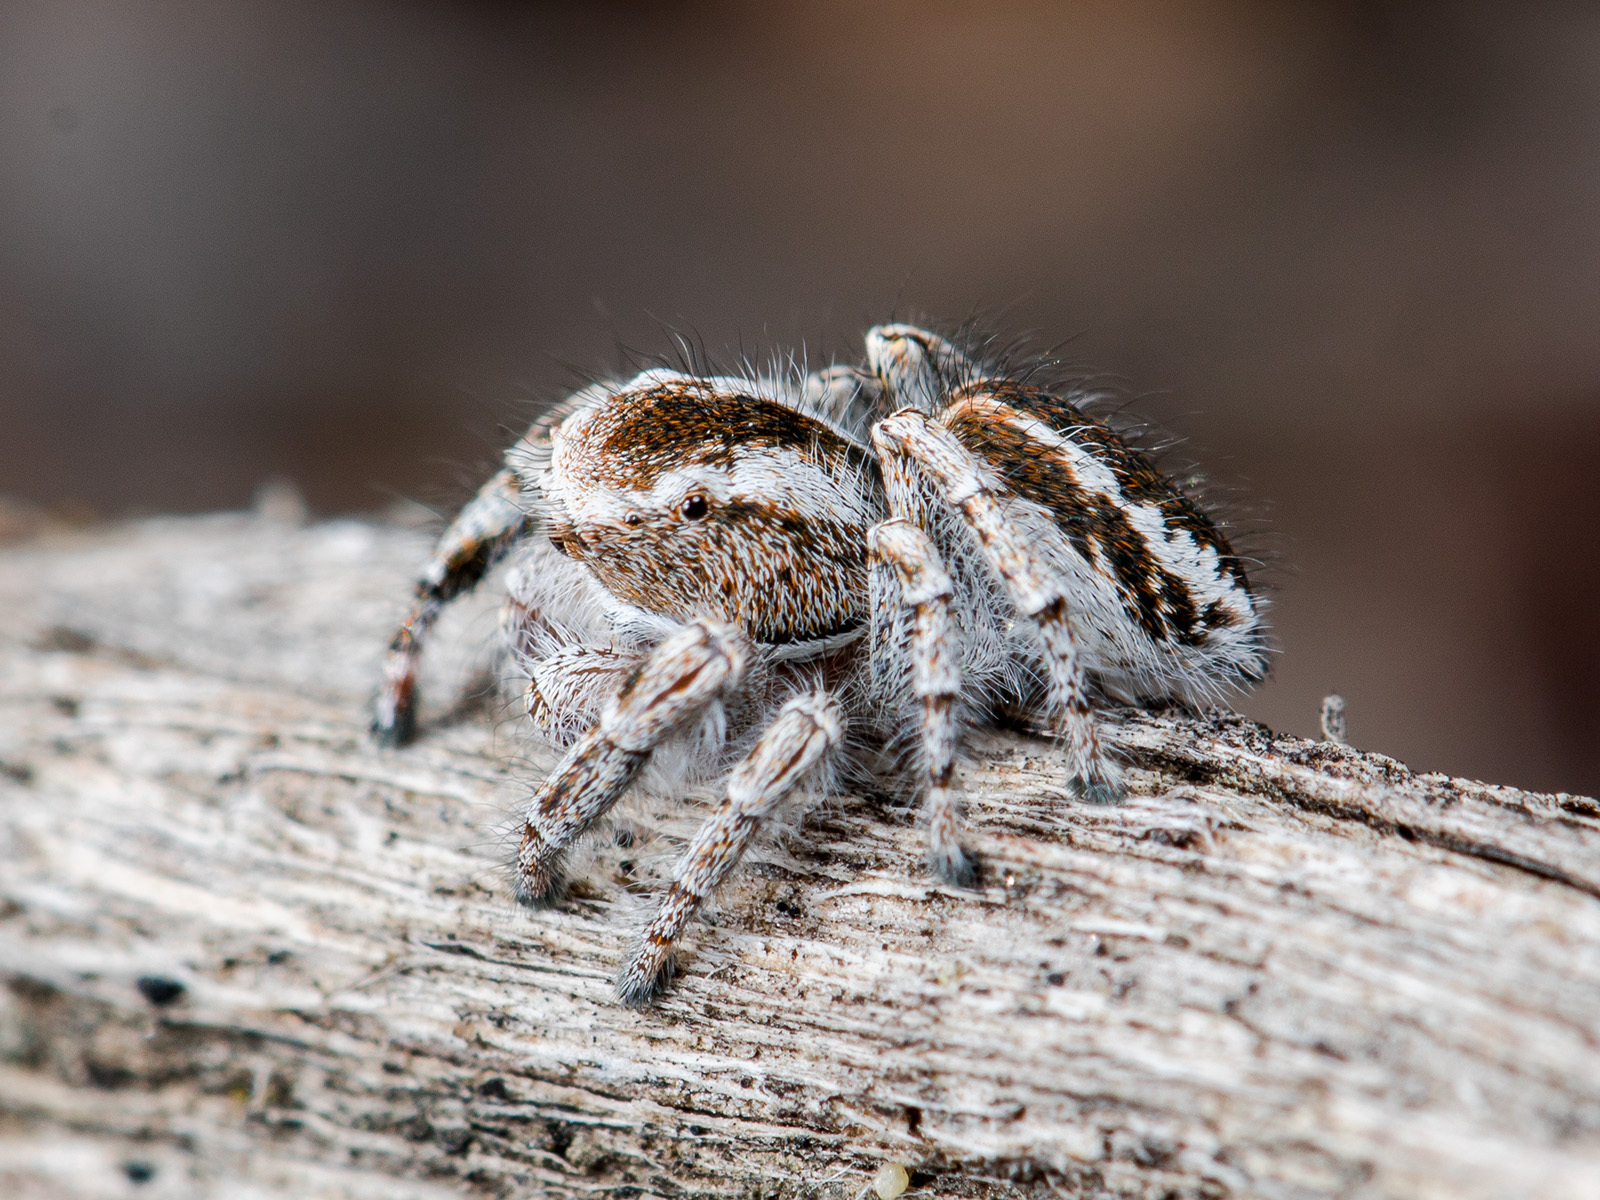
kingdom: Animalia
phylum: Arthropoda
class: Arachnida
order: Araneae
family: Salticidae
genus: Pseudomogrus
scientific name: Pseudomogrus vittatus
